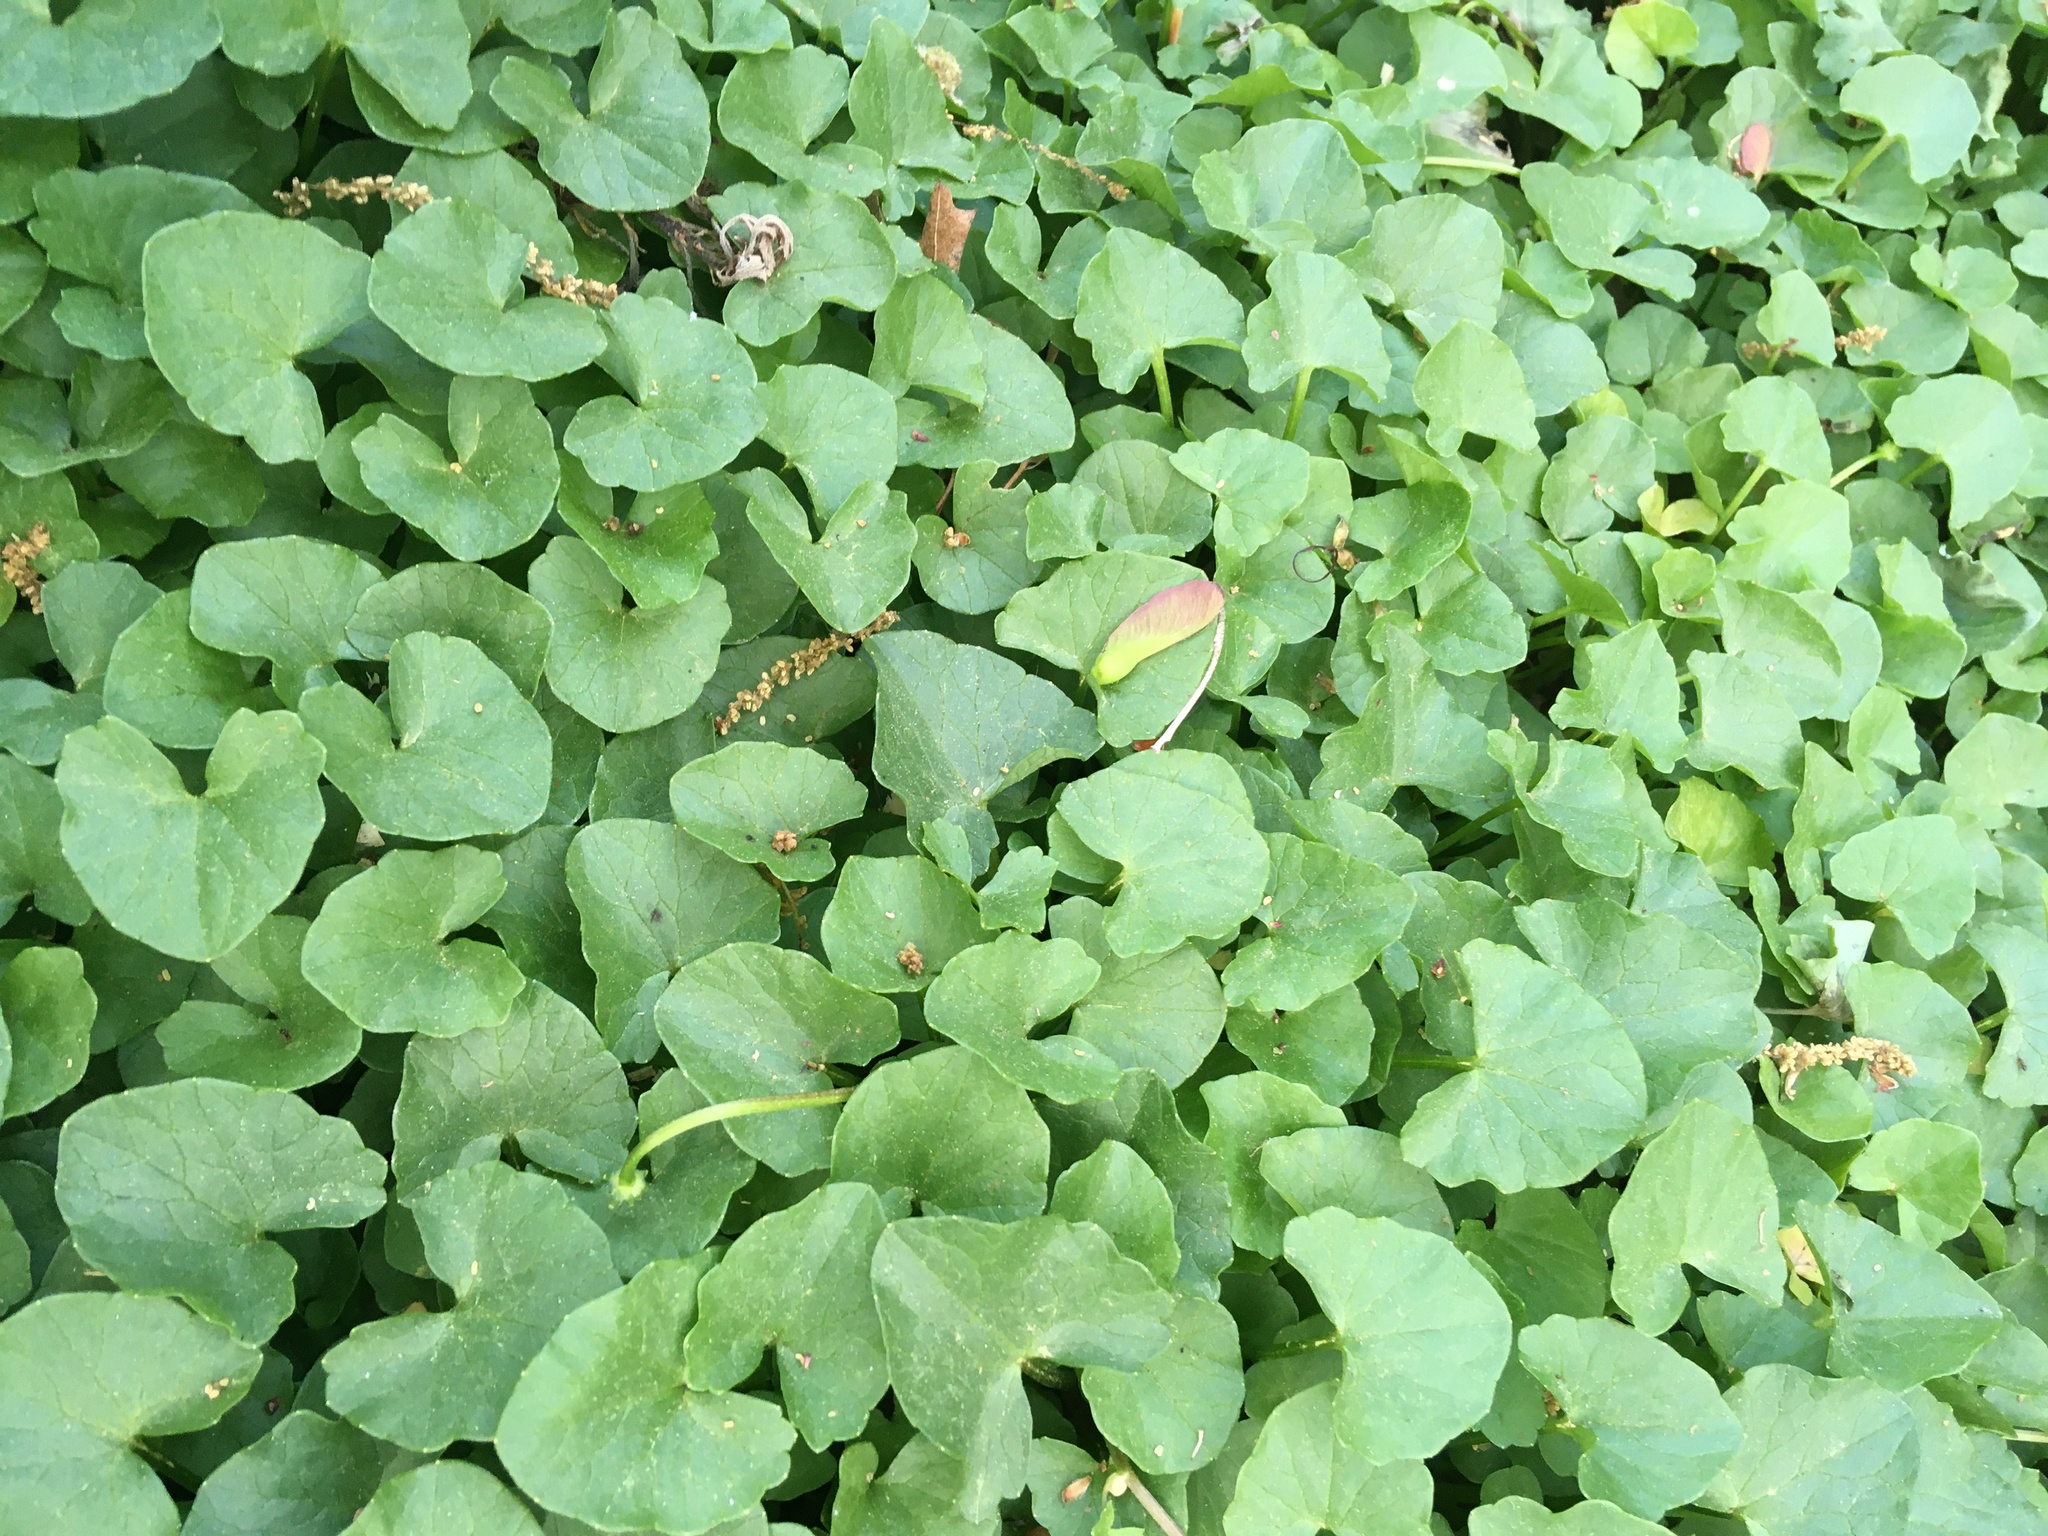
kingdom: Plantae
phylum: Tracheophyta
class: Magnoliopsida
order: Ranunculales
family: Ranunculaceae
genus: Ficaria
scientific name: Ficaria verna
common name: Lesser celandine
